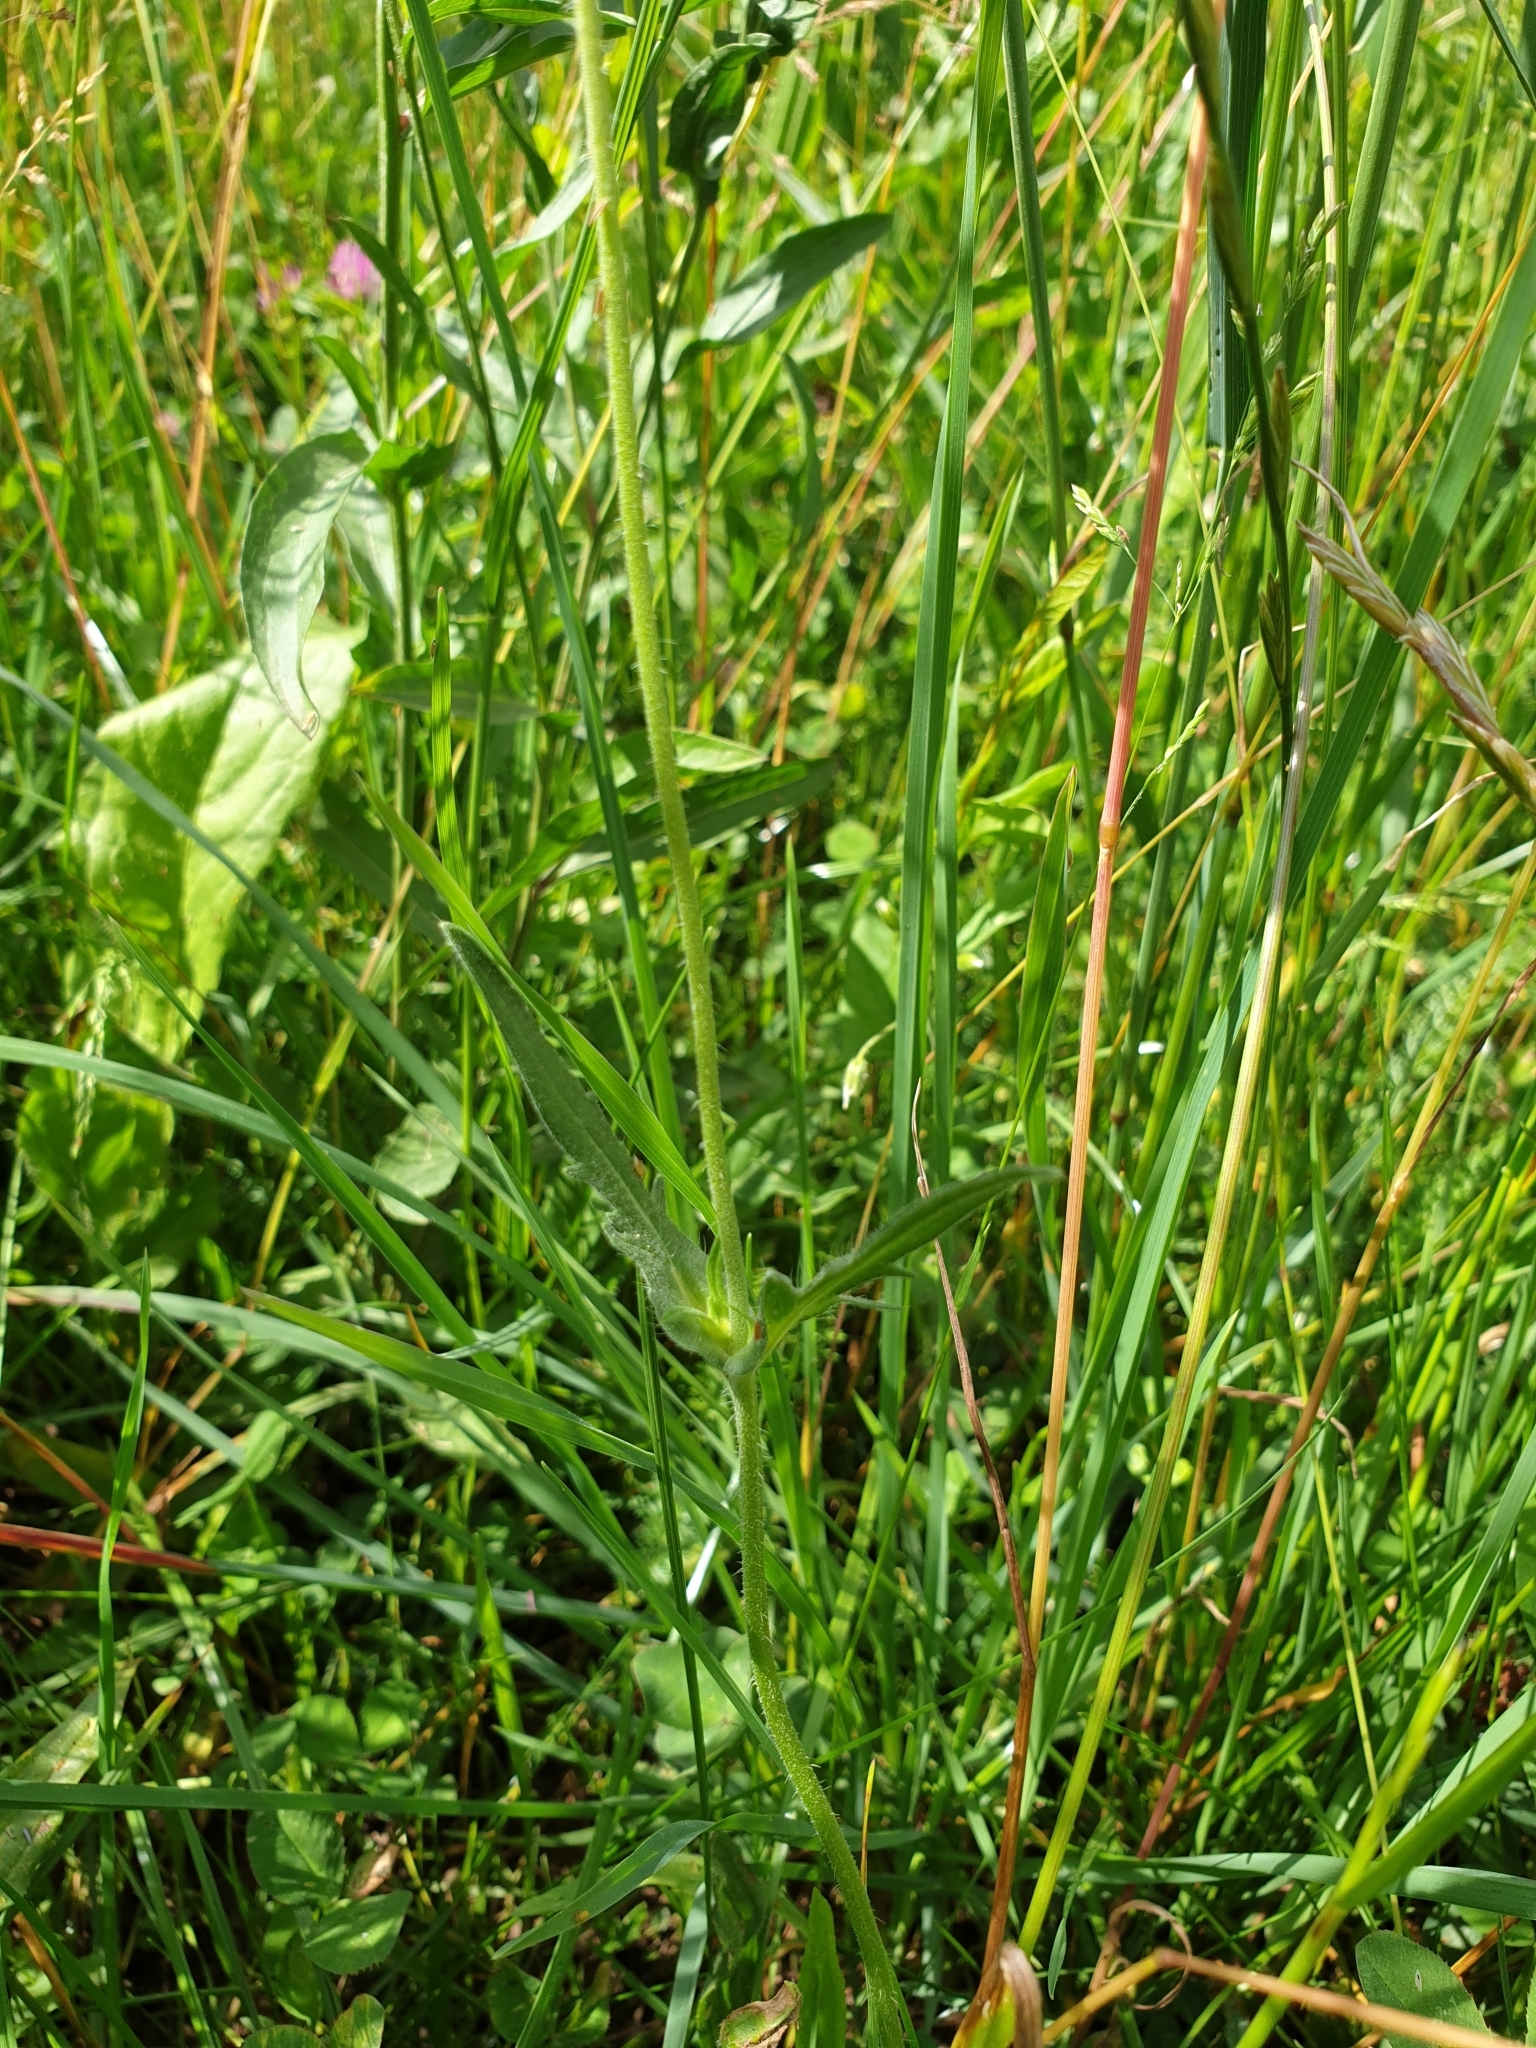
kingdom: Plantae
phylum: Tracheophyta
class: Magnoliopsida
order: Dipsacales
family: Caprifoliaceae
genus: Knautia
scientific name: Knautia arvensis
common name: Field scabiosa
